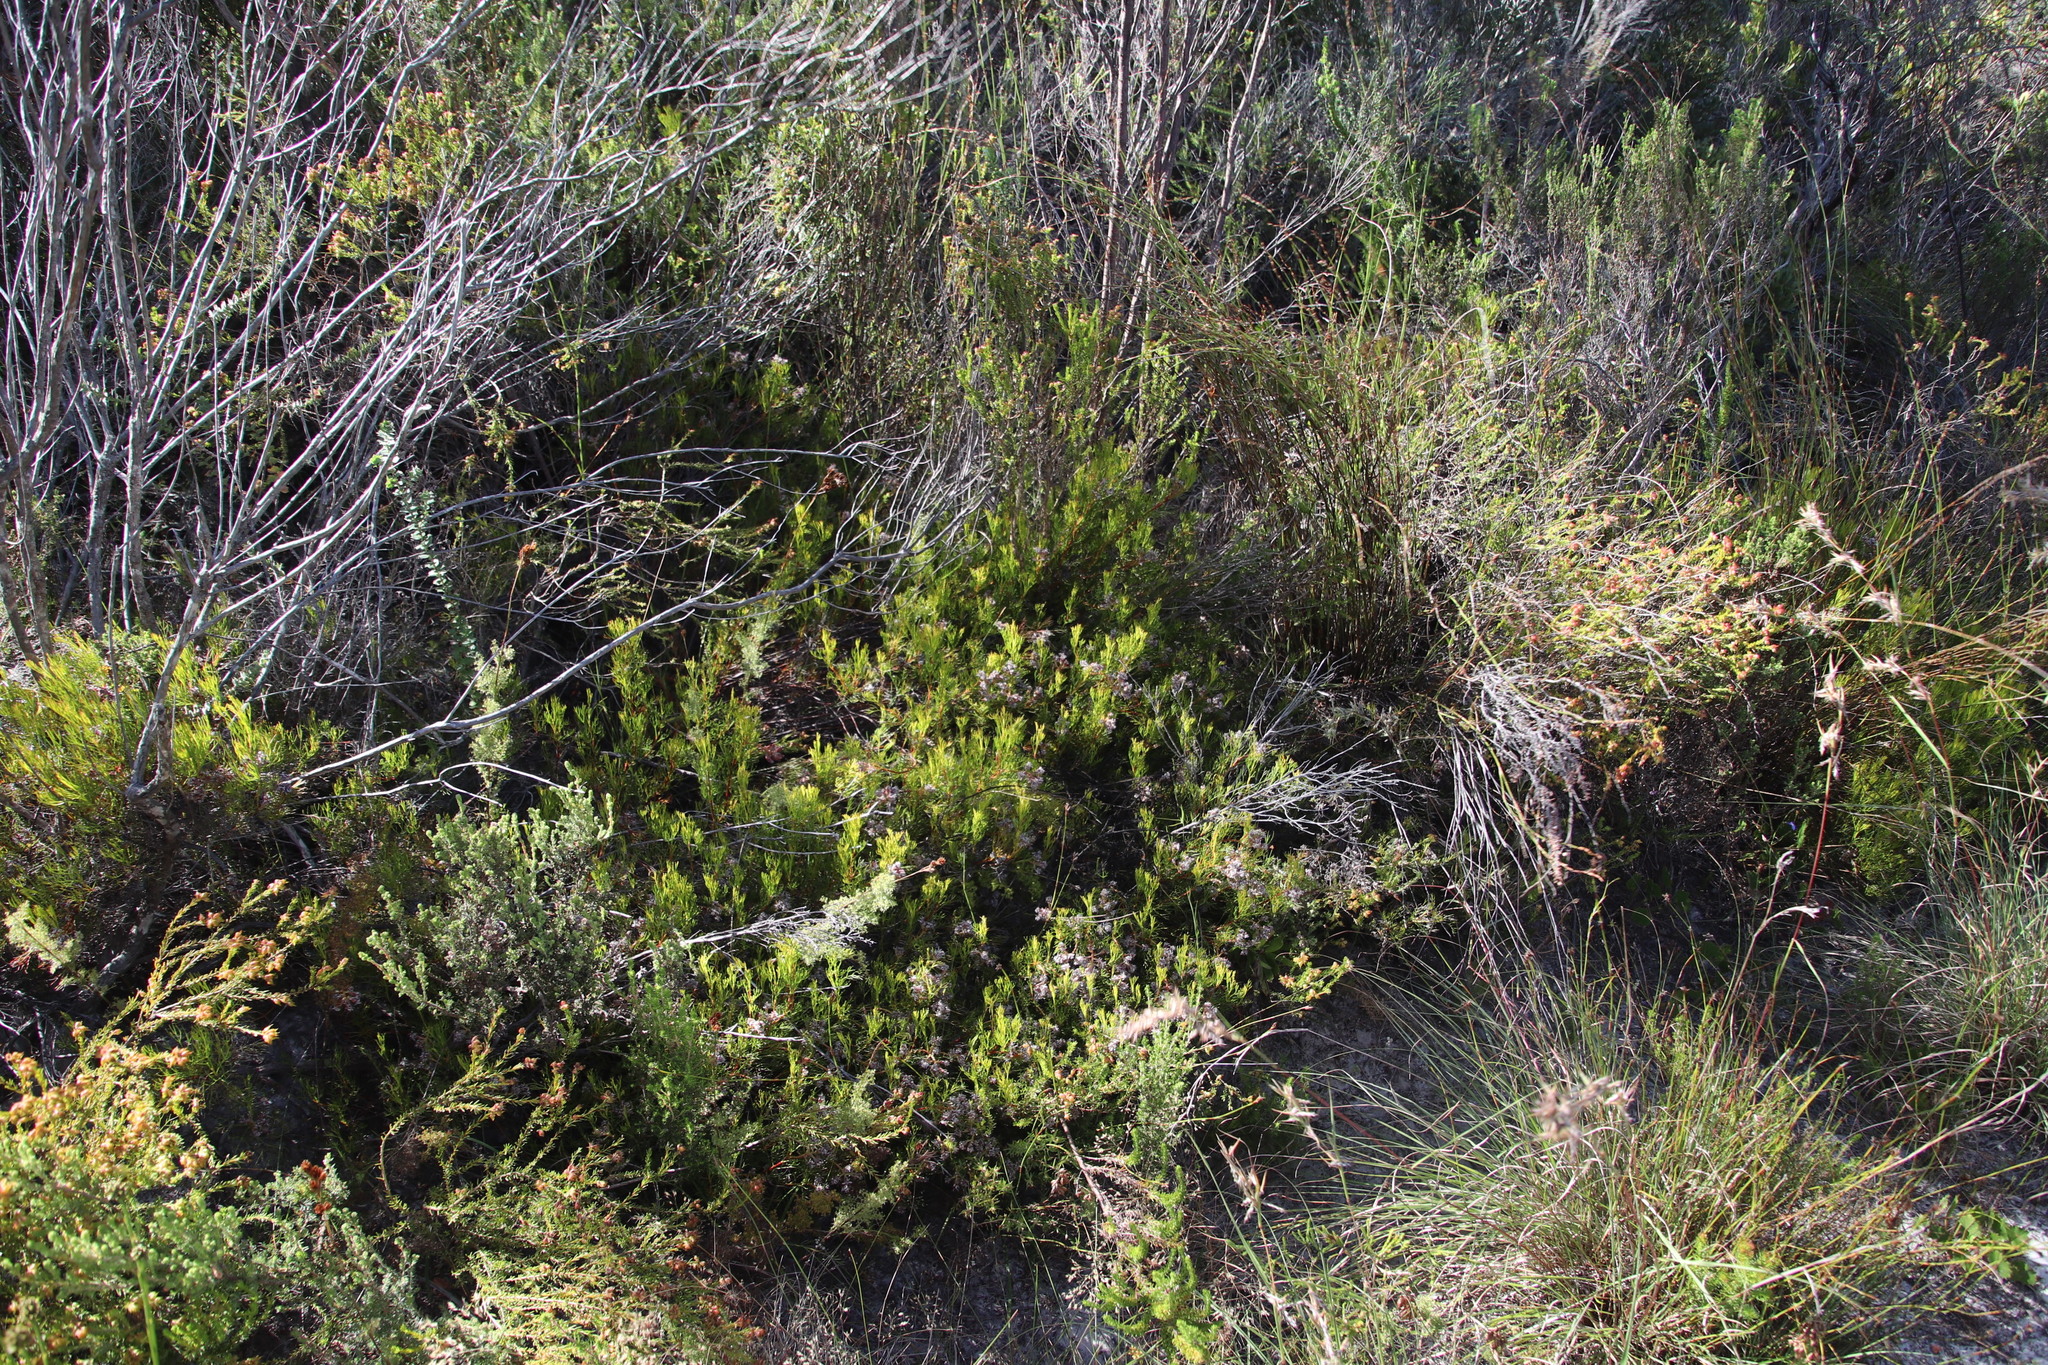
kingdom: Plantae
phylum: Tracheophyta
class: Magnoliopsida
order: Proteales
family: Proteaceae
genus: Serruria
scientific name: Serruria rubricaulis
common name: Red-stem spiderhead
